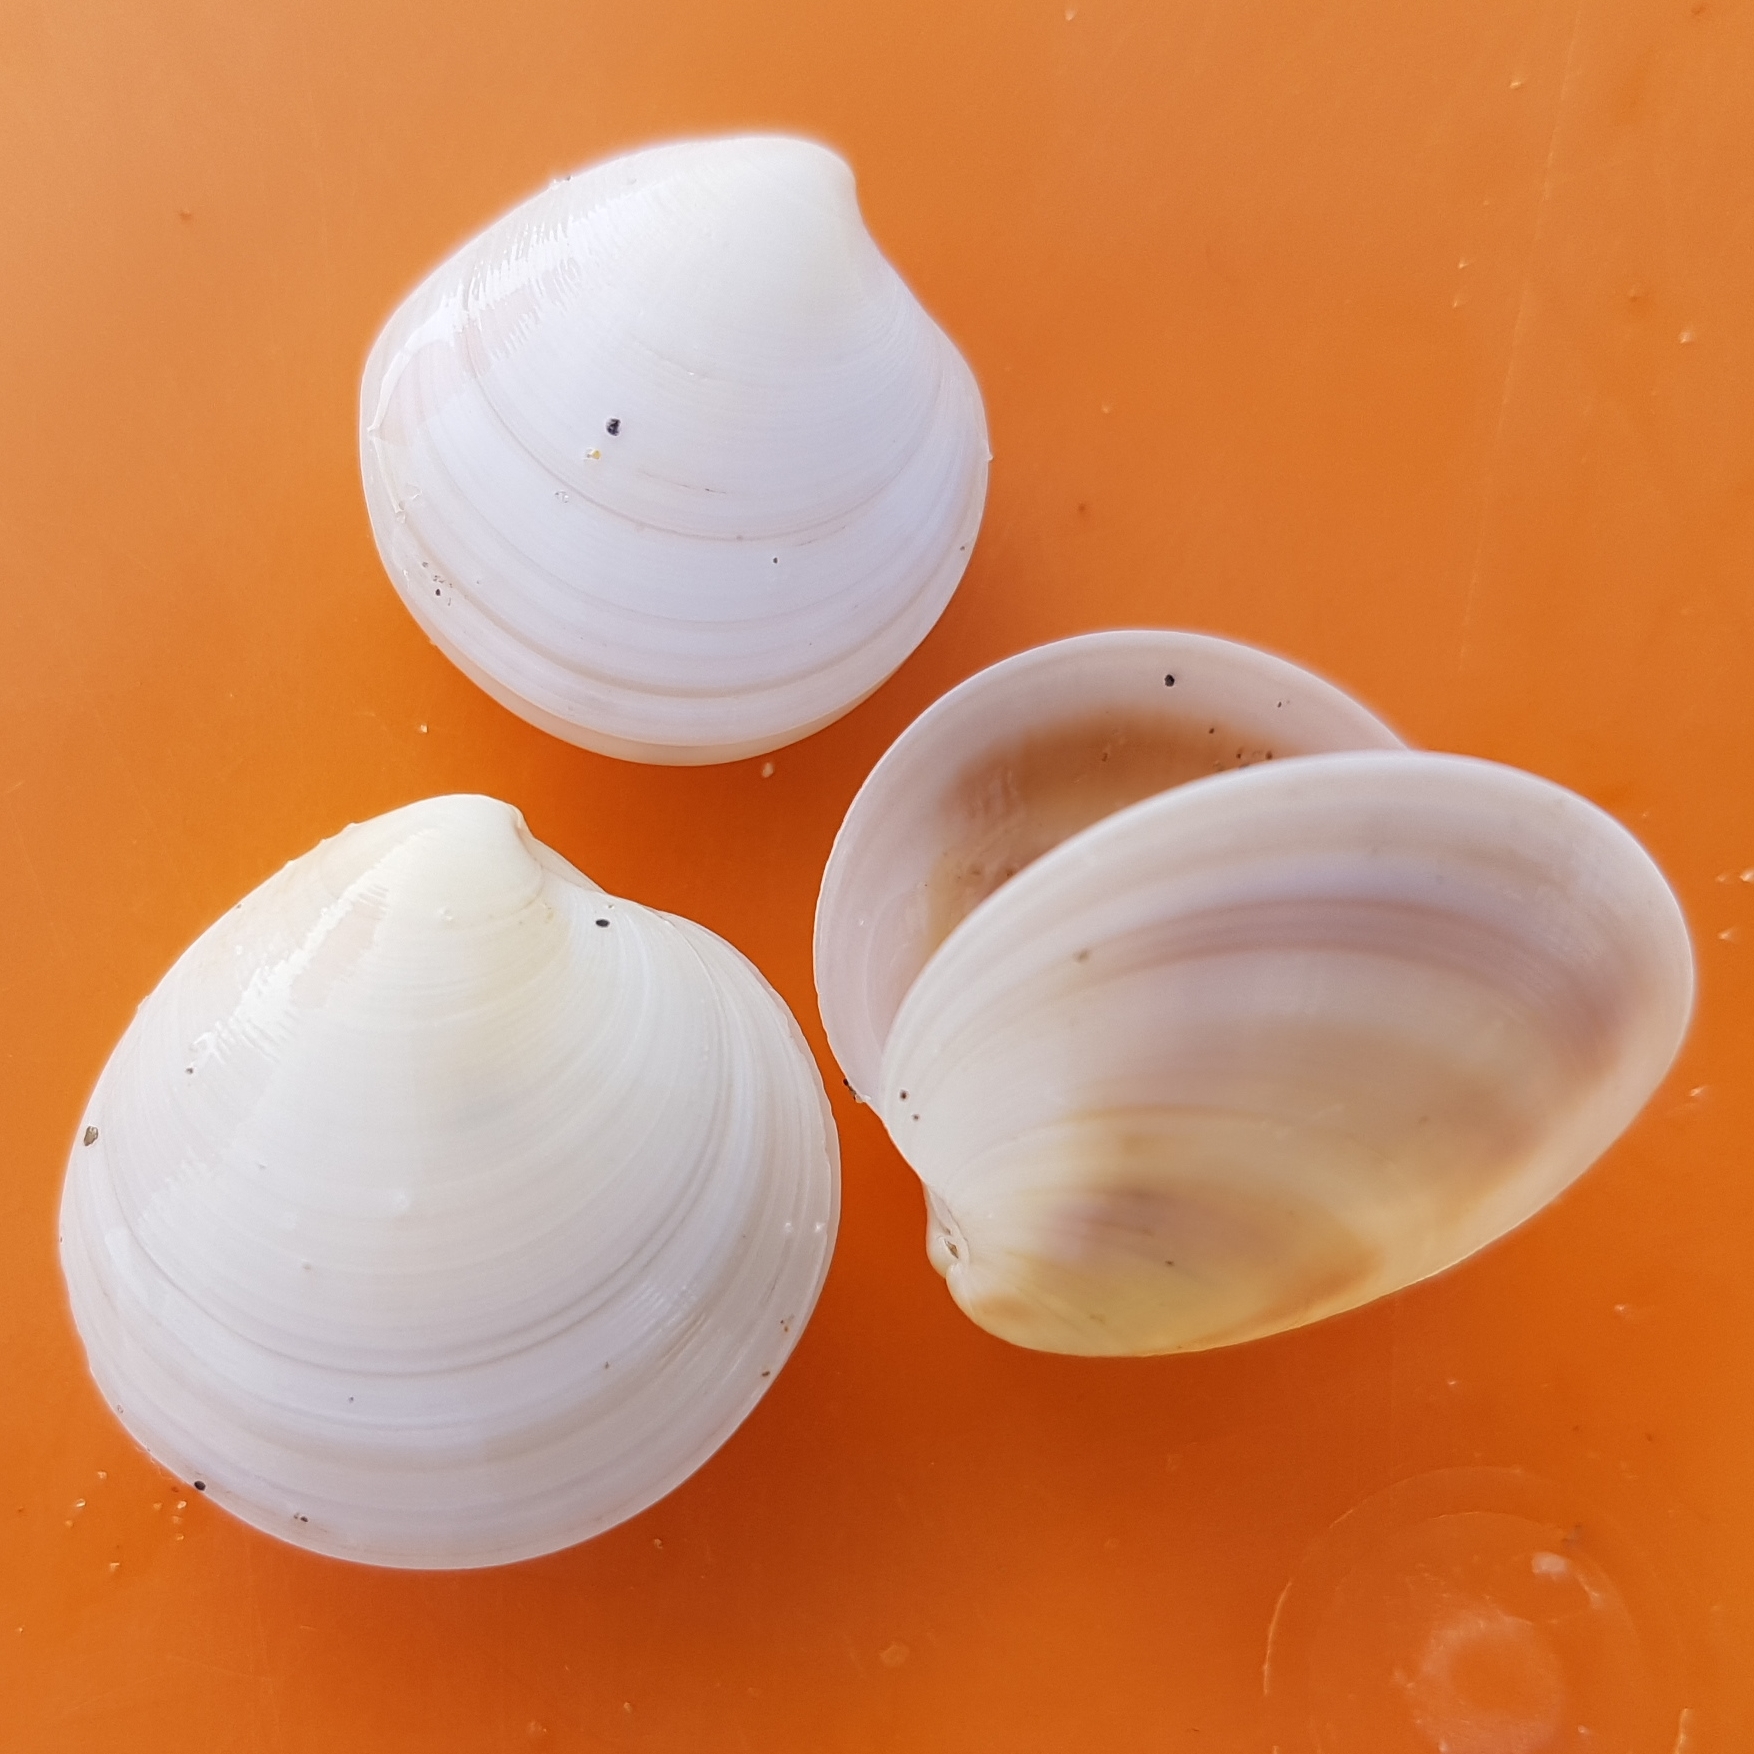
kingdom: Animalia
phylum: Mollusca
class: Bivalvia
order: Venerida
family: Veneridae
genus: Dosinia
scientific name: Dosinia lupinus
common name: Smooth artemis
